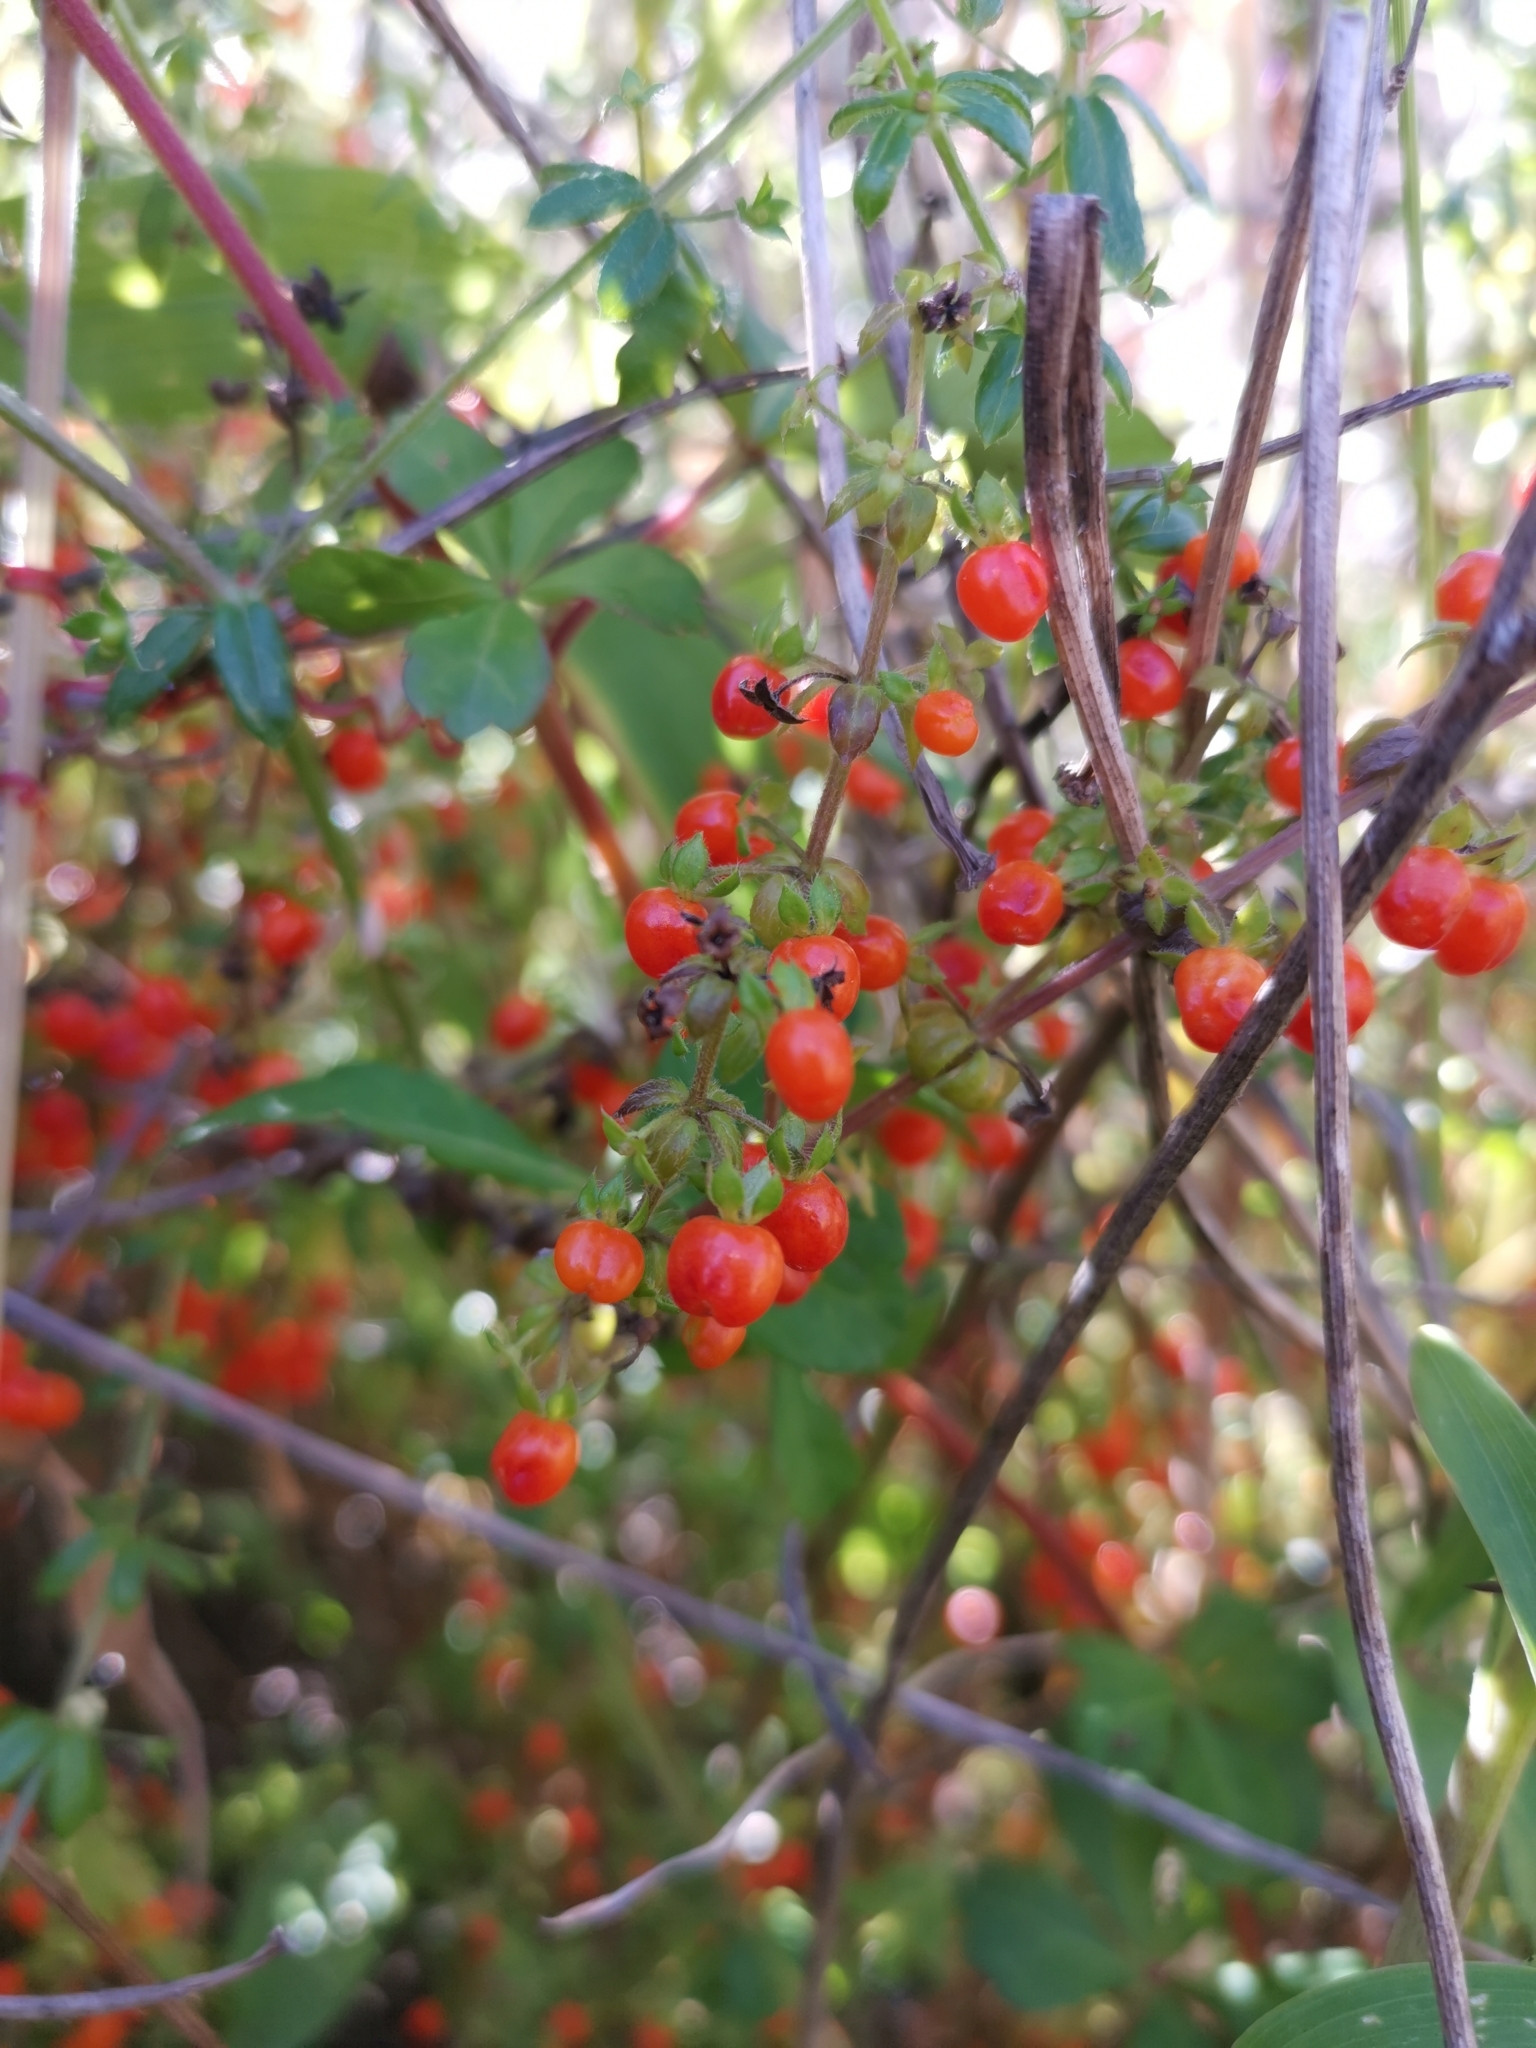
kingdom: Plantae
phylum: Tracheophyta
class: Magnoliopsida
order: Gentianales
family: Rubiaceae
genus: Galium
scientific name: Galium hypocarpium
